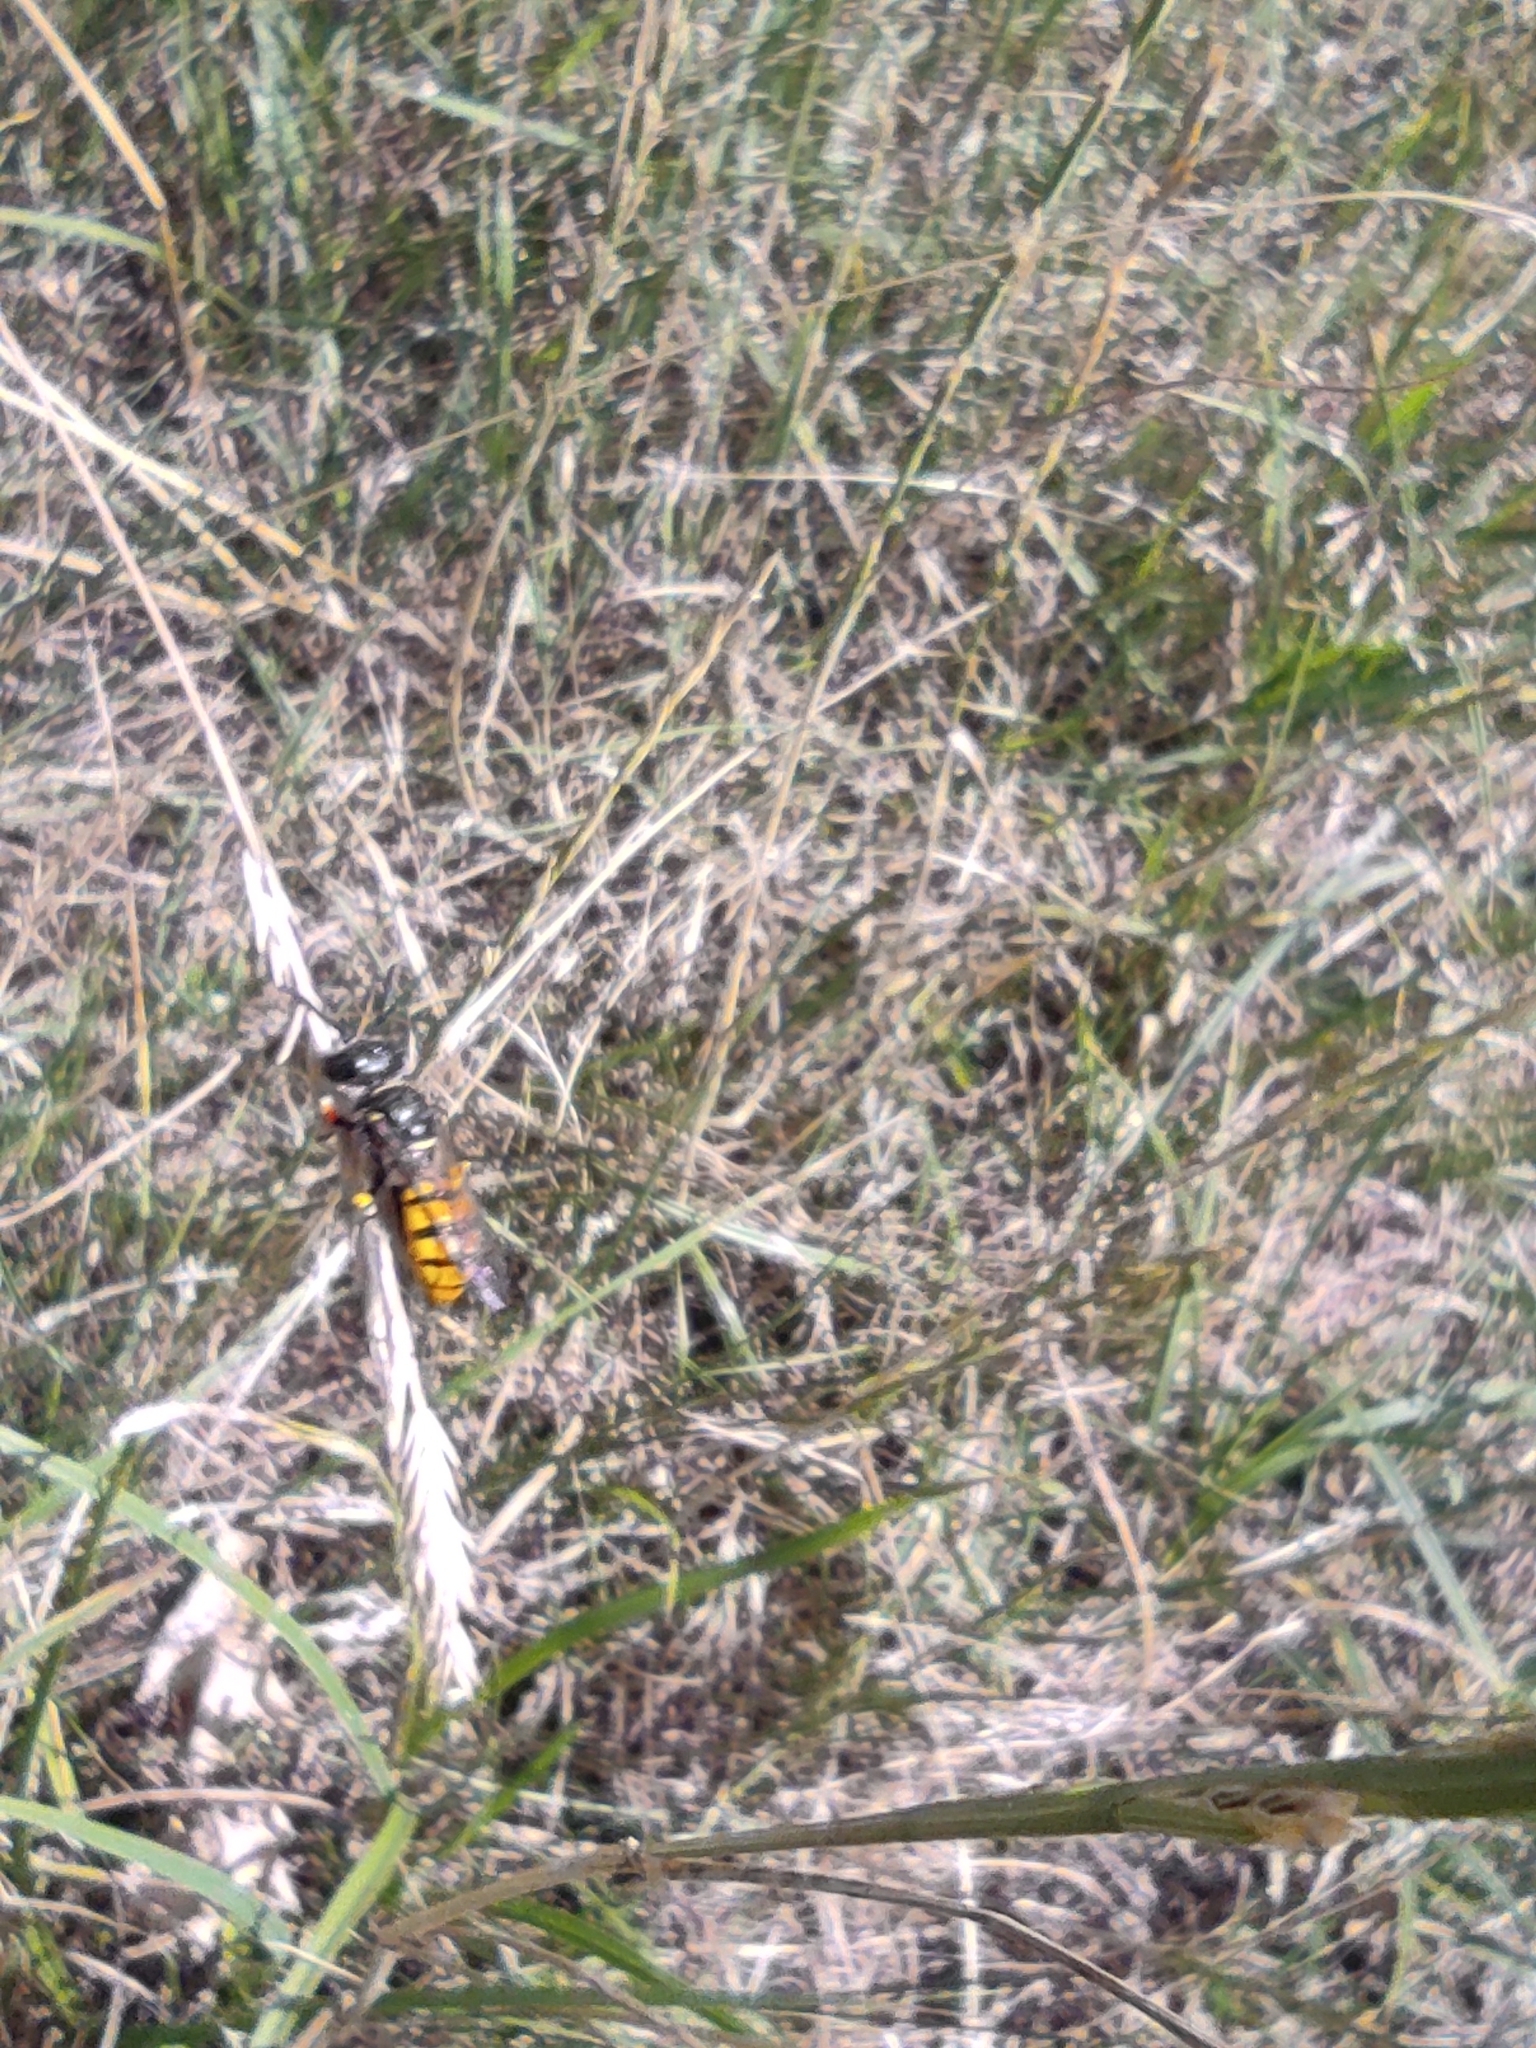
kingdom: Animalia
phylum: Arthropoda
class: Insecta
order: Hymenoptera
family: Crabronidae
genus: Philanthus
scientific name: Philanthus triangulum
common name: Bee wolf
